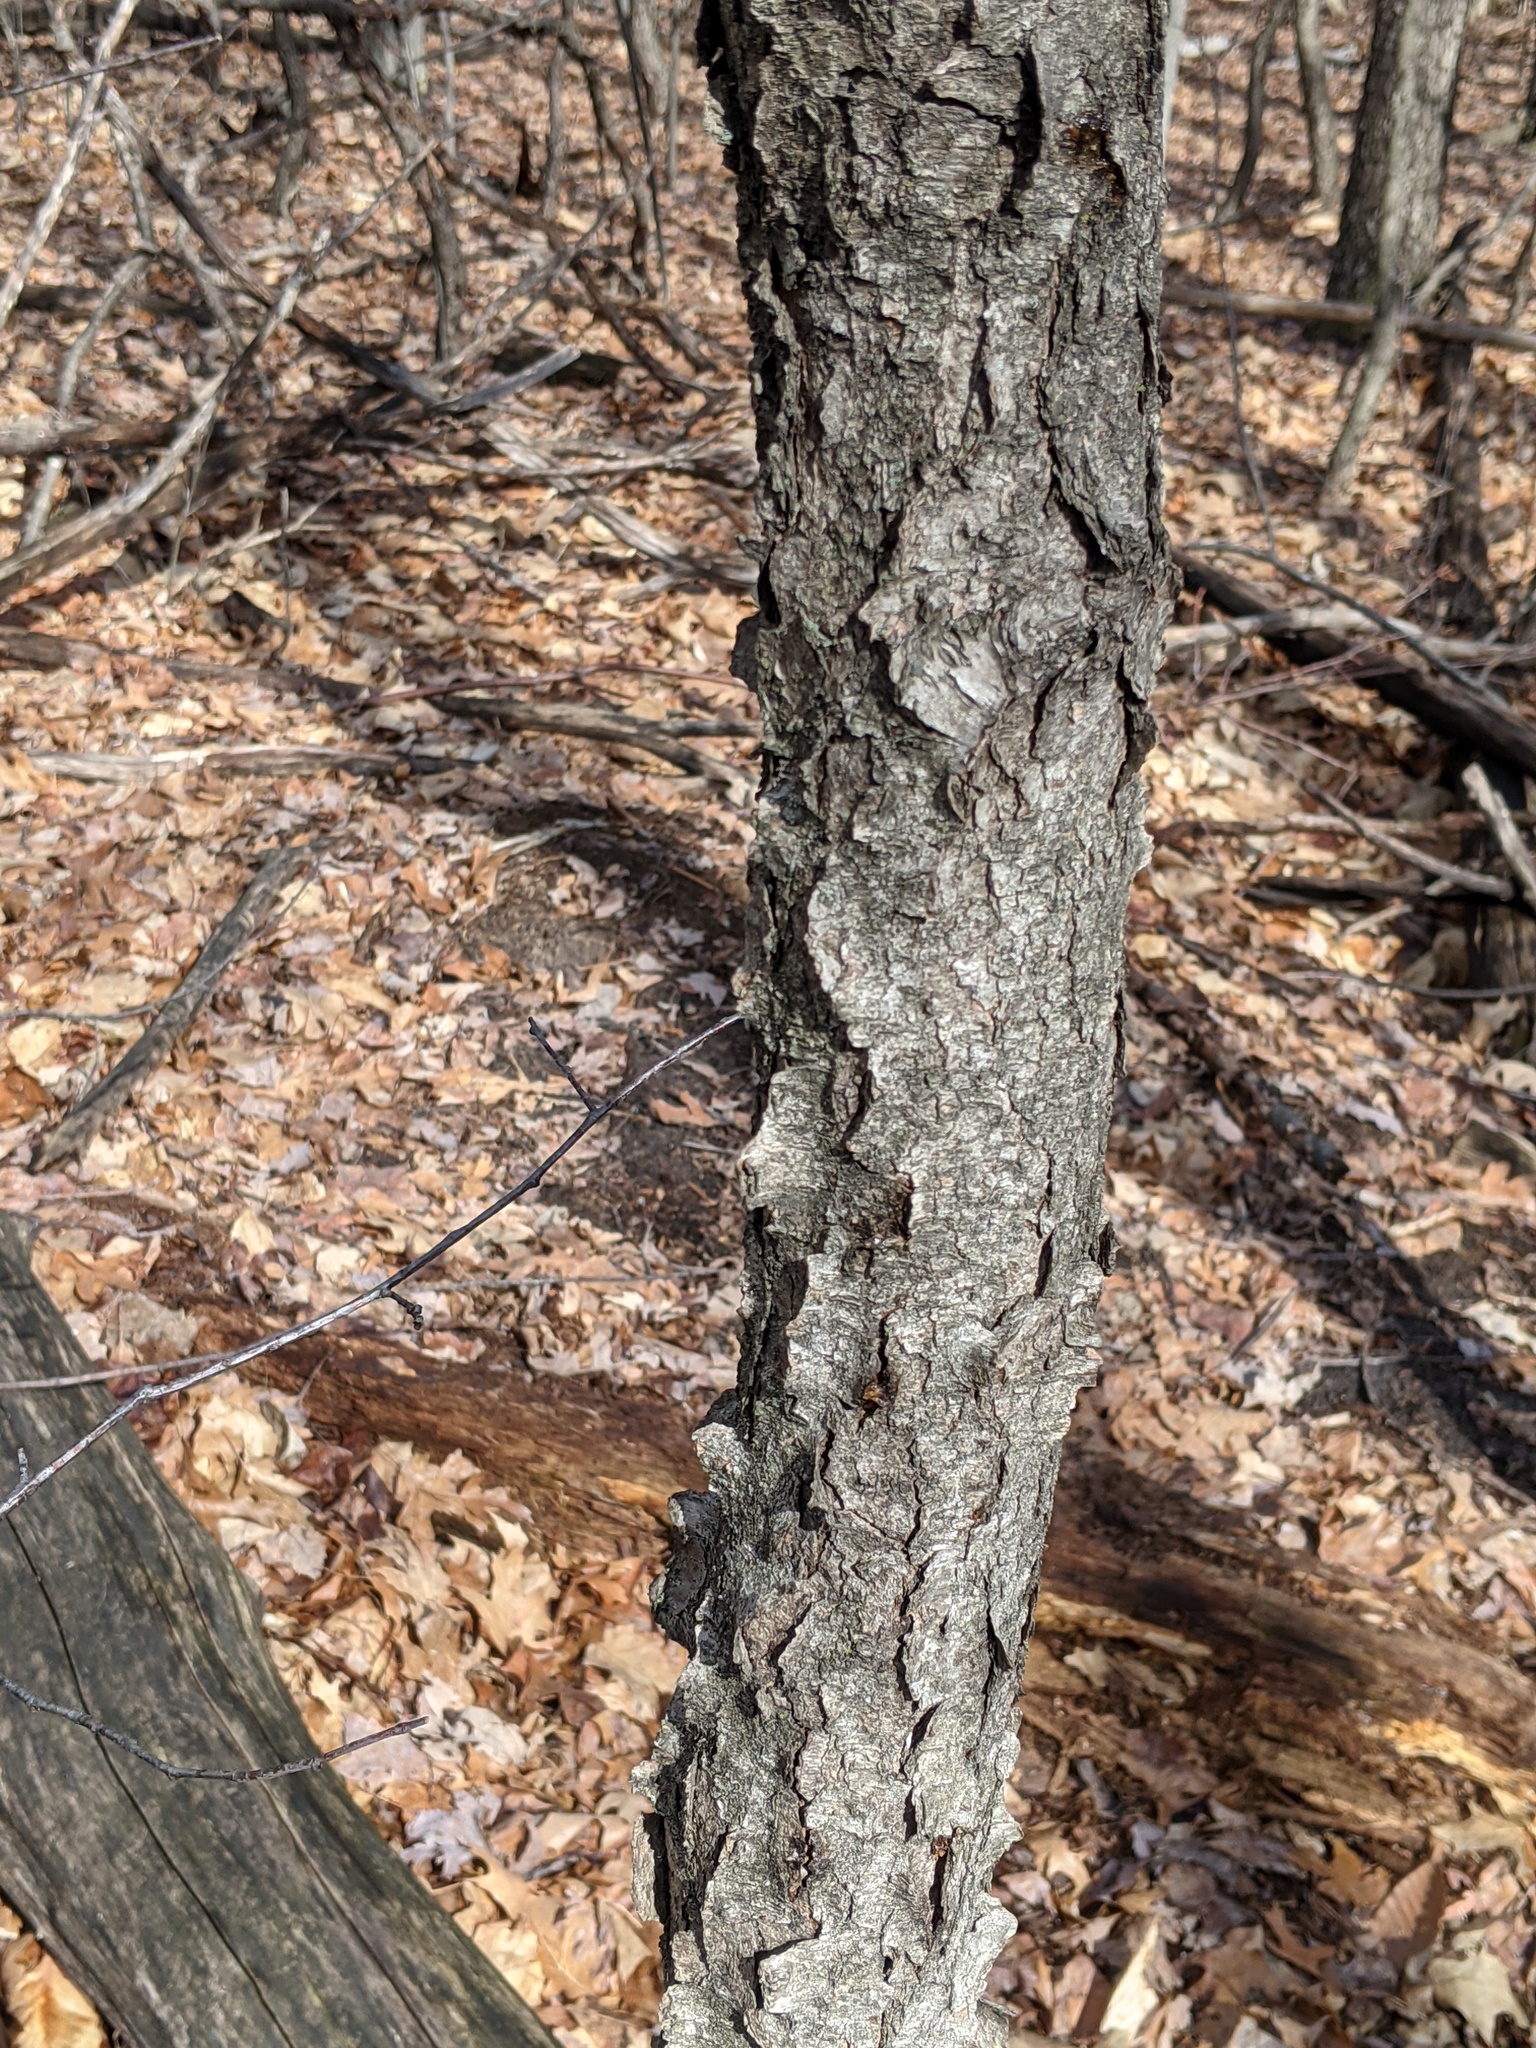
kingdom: Plantae
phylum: Tracheophyta
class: Magnoliopsida
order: Rosales
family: Rosaceae
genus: Prunus
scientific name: Prunus serotina
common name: Black cherry
